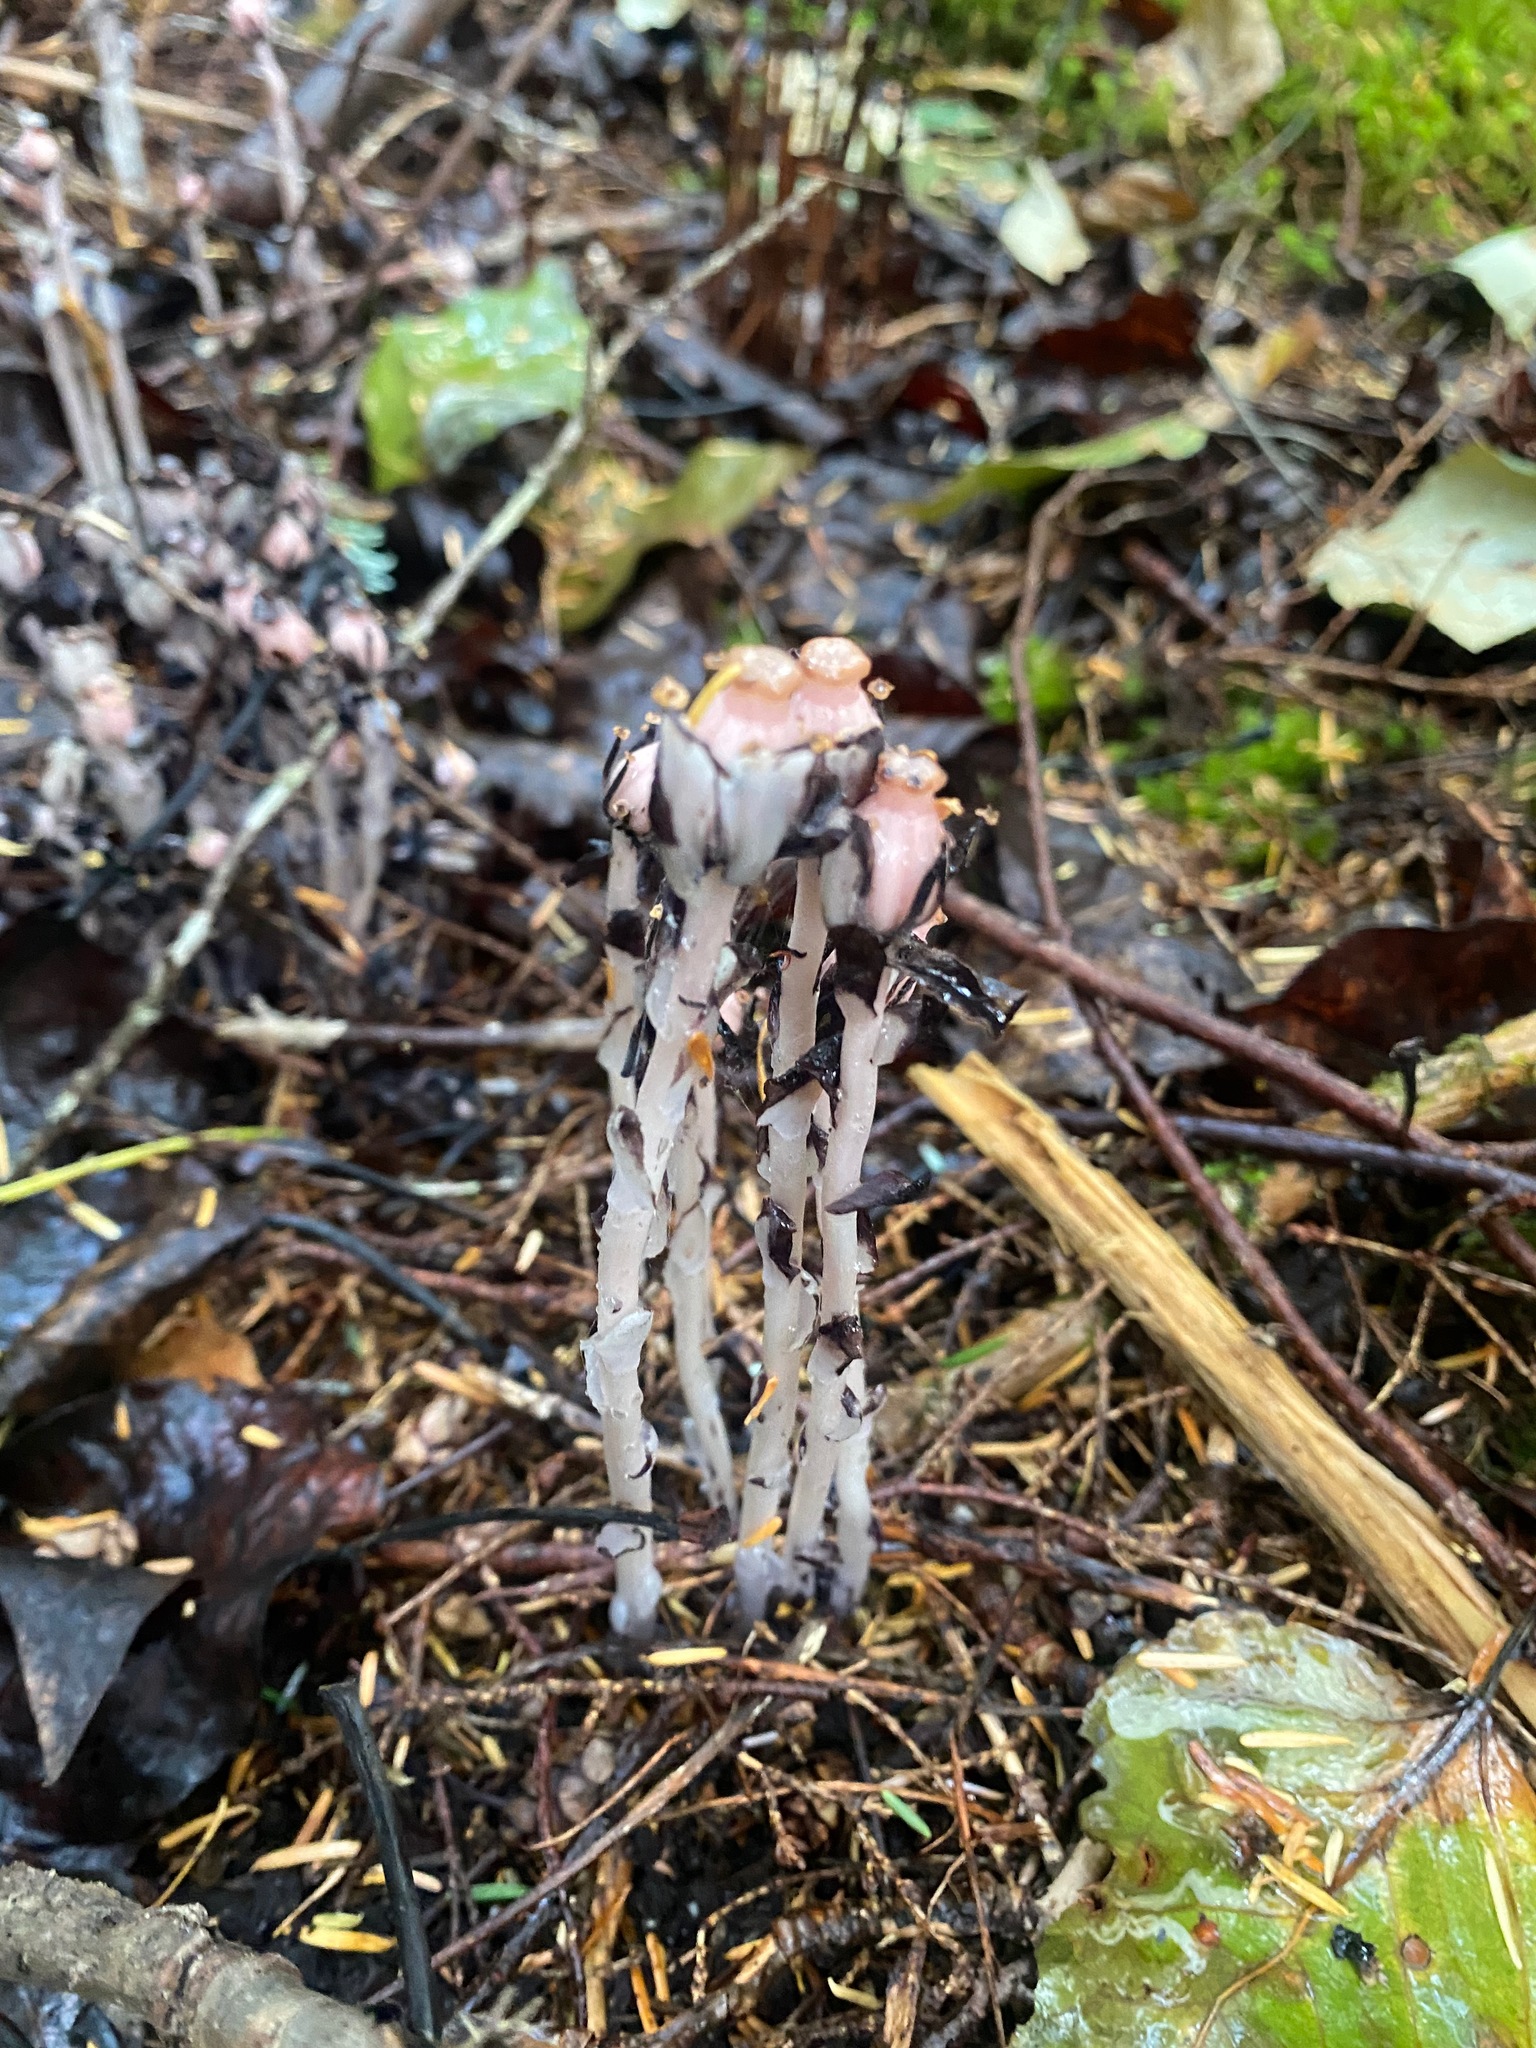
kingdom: Plantae
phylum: Tracheophyta
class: Magnoliopsida
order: Ericales
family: Ericaceae
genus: Monotropa
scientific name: Monotropa uniflora
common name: Convulsion root
